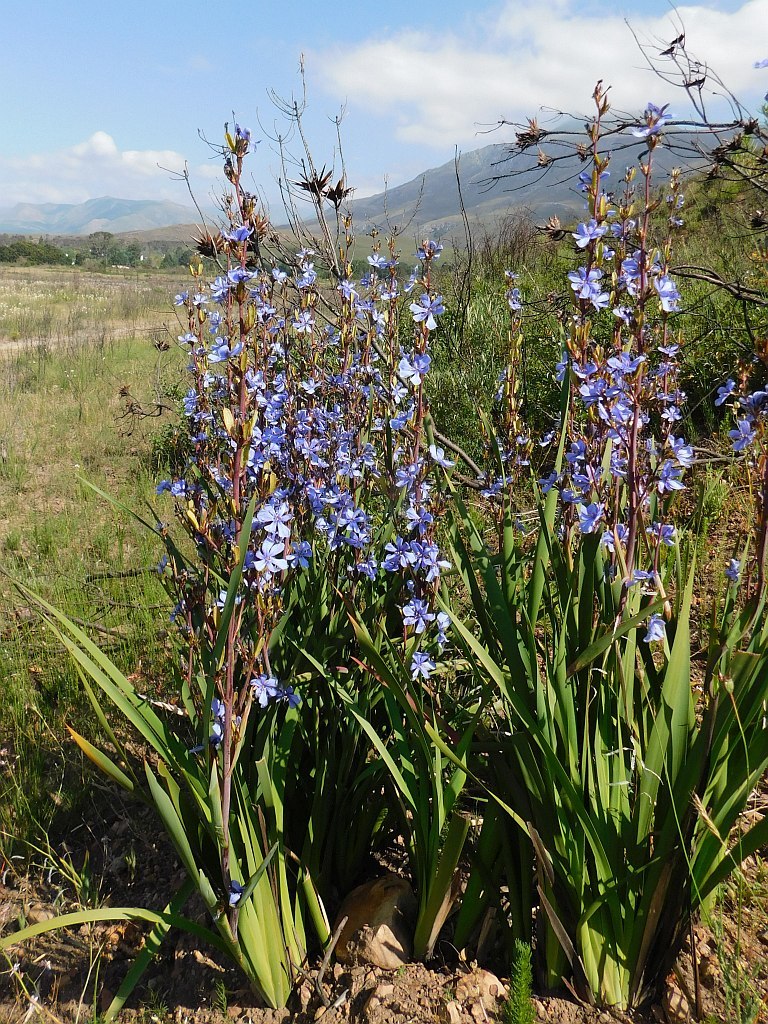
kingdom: Plantae
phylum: Tracheophyta
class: Liliopsida
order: Asparagales
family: Iridaceae
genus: Aristea
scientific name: Aristea bakeri
